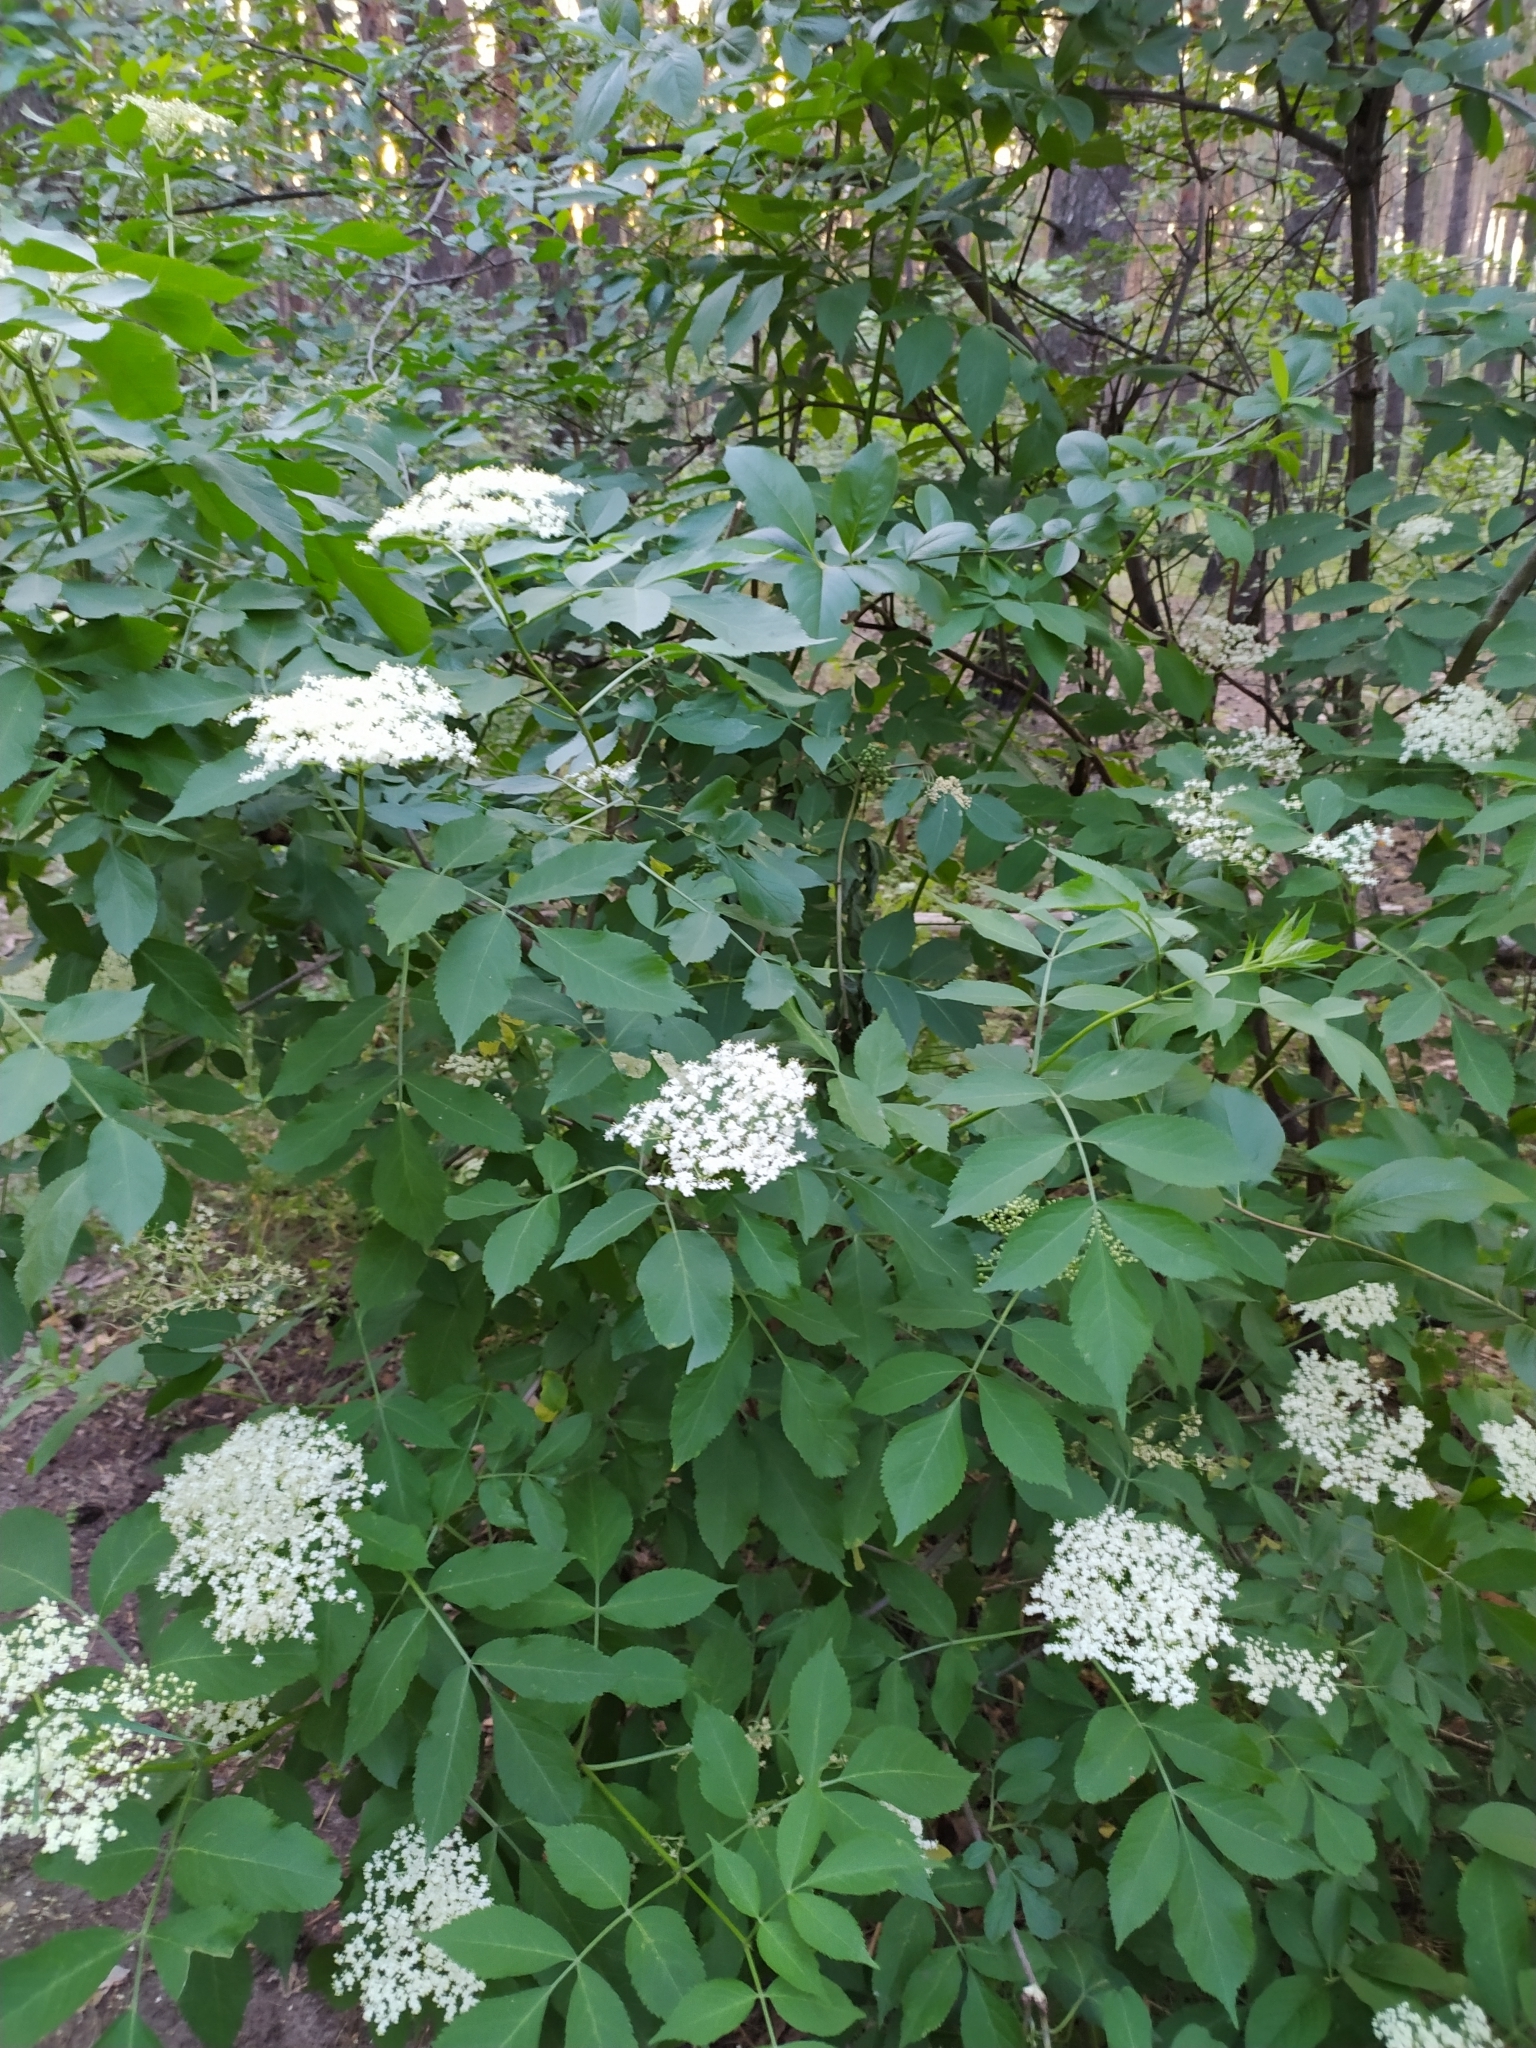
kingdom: Plantae
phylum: Tracheophyta
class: Magnoliopsida
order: Dipsacales
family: Viburnaceae
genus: Sambucus
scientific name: Sambucus racemosa
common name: Red-berried elder
